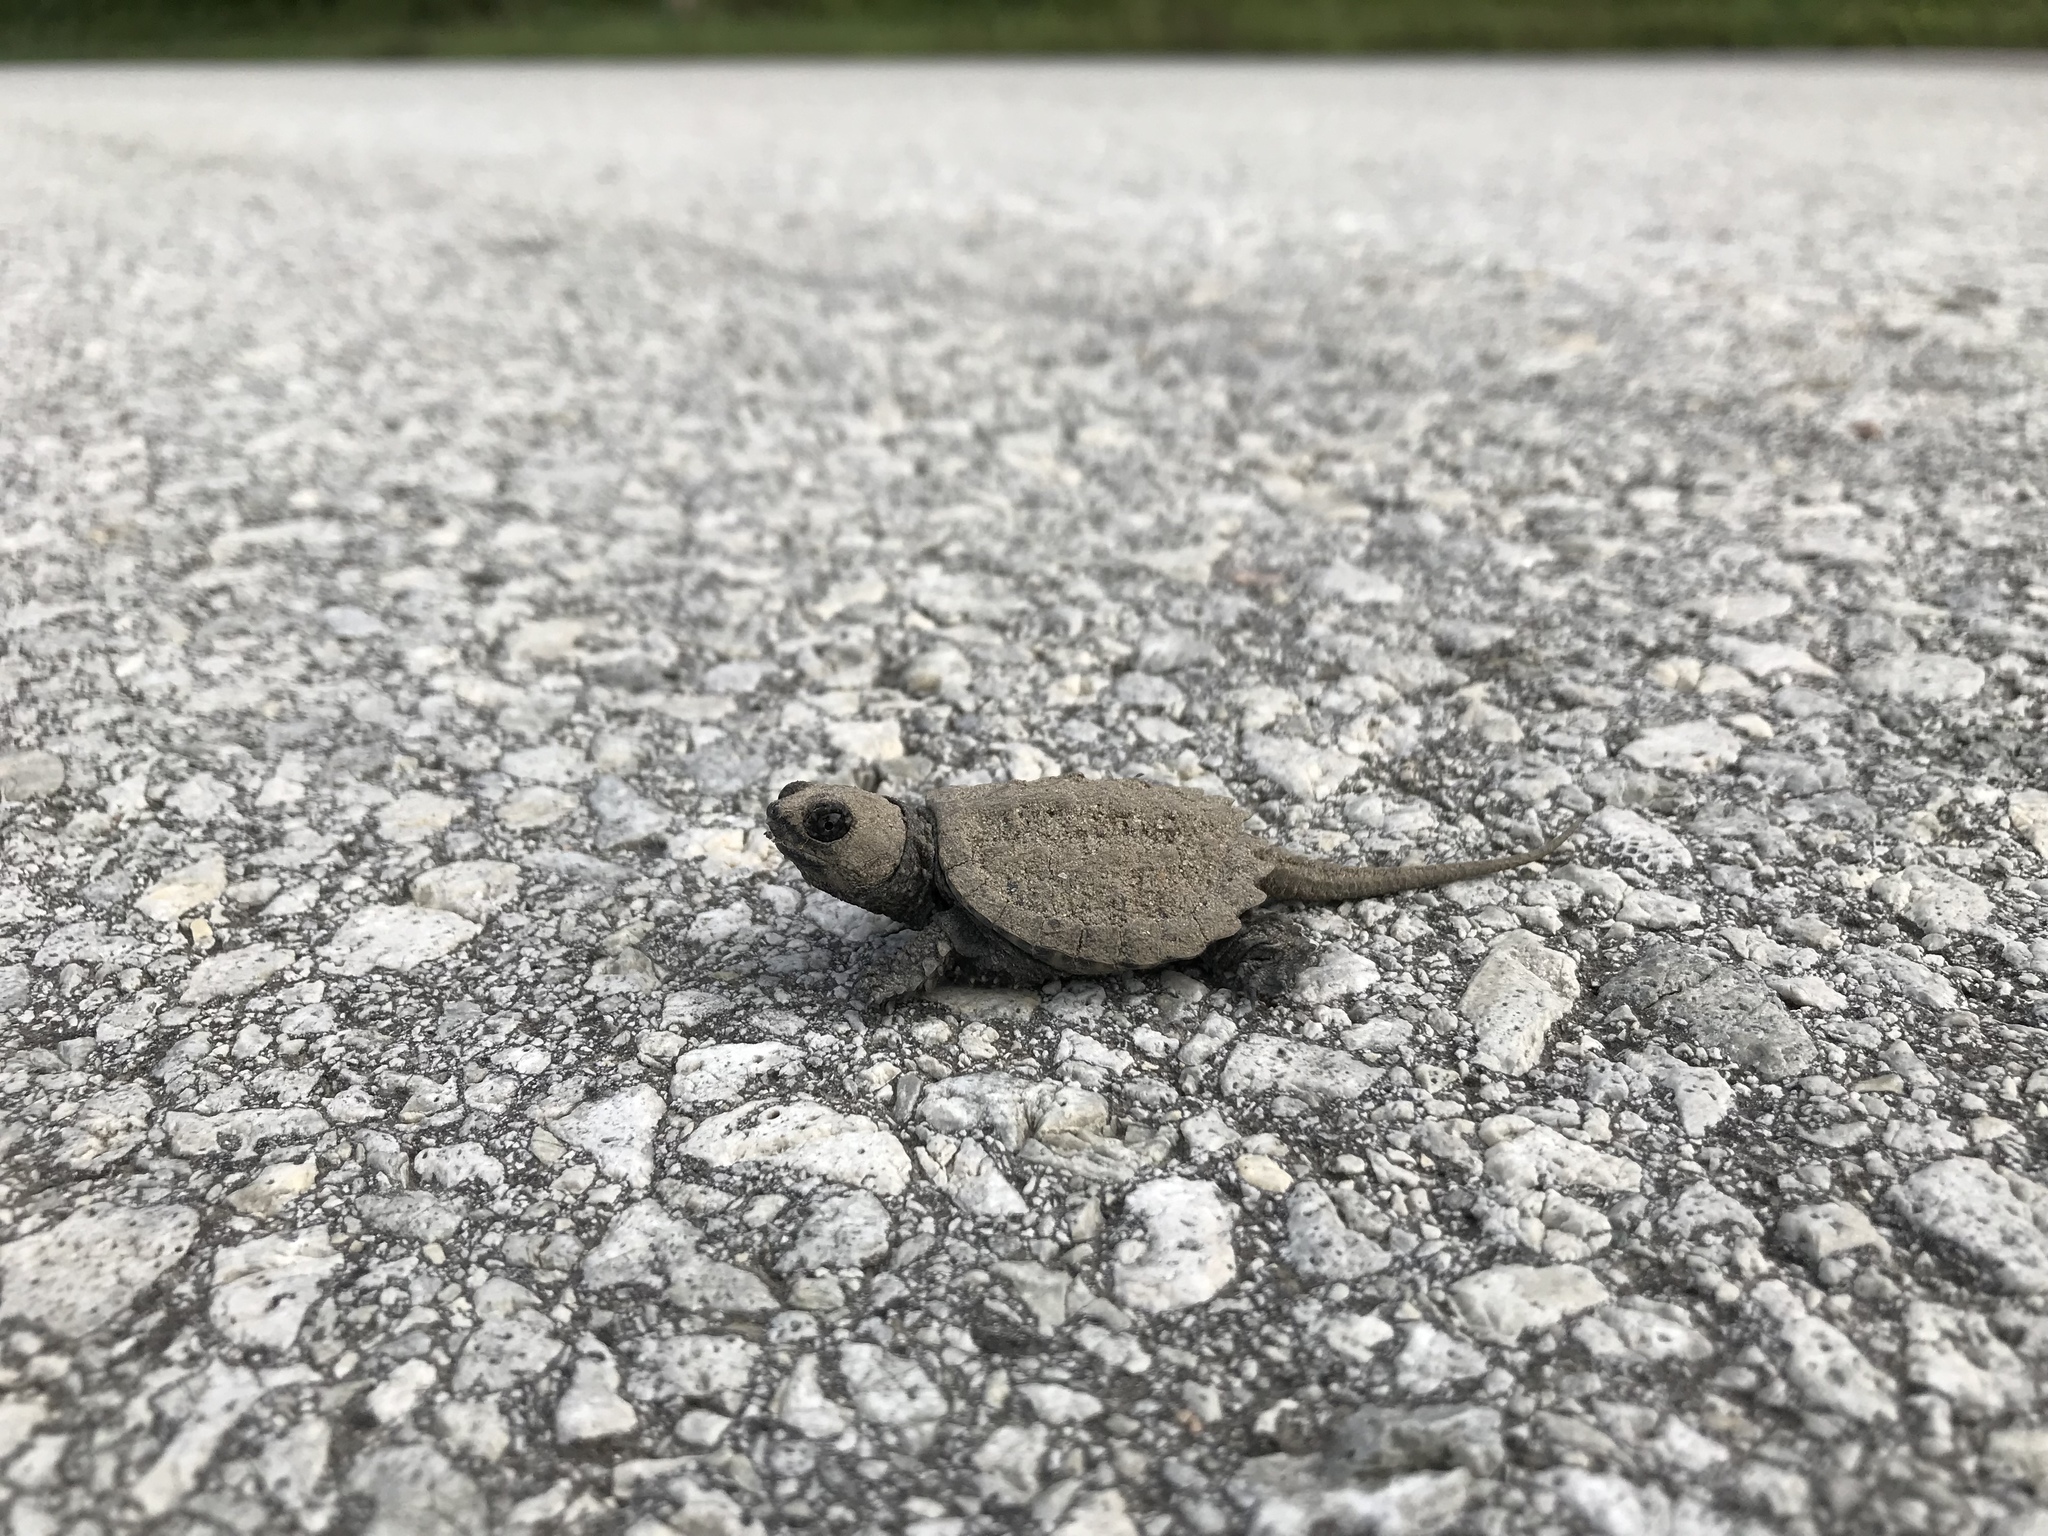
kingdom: Animalia
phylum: Chordata
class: Testudines
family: Chelydridae
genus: Chelydra
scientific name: Chelydra serpentina
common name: Common snapping turtle
